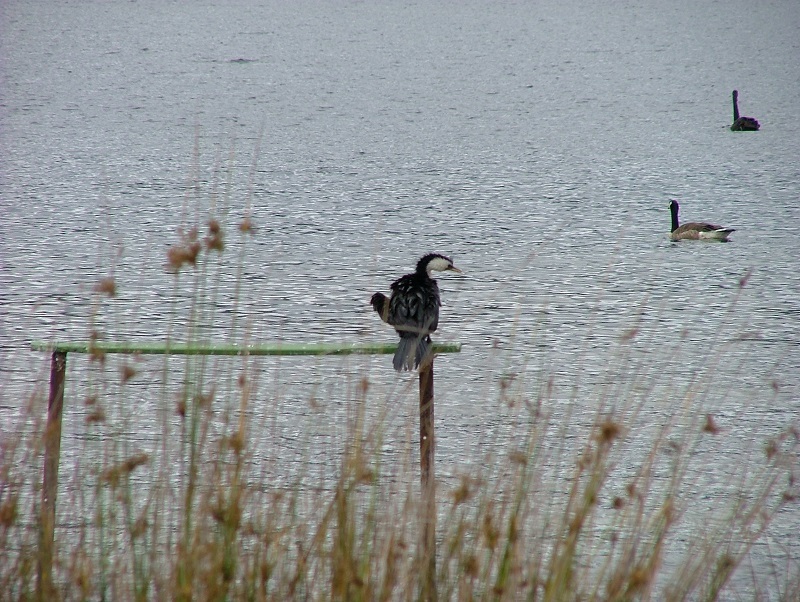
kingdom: Animalia
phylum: Chordata
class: Aves
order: Suliformes
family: Phalacrocoracidae
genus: Microcarbo
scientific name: Microcarbo melanoleucos
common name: Little pied cormorant
